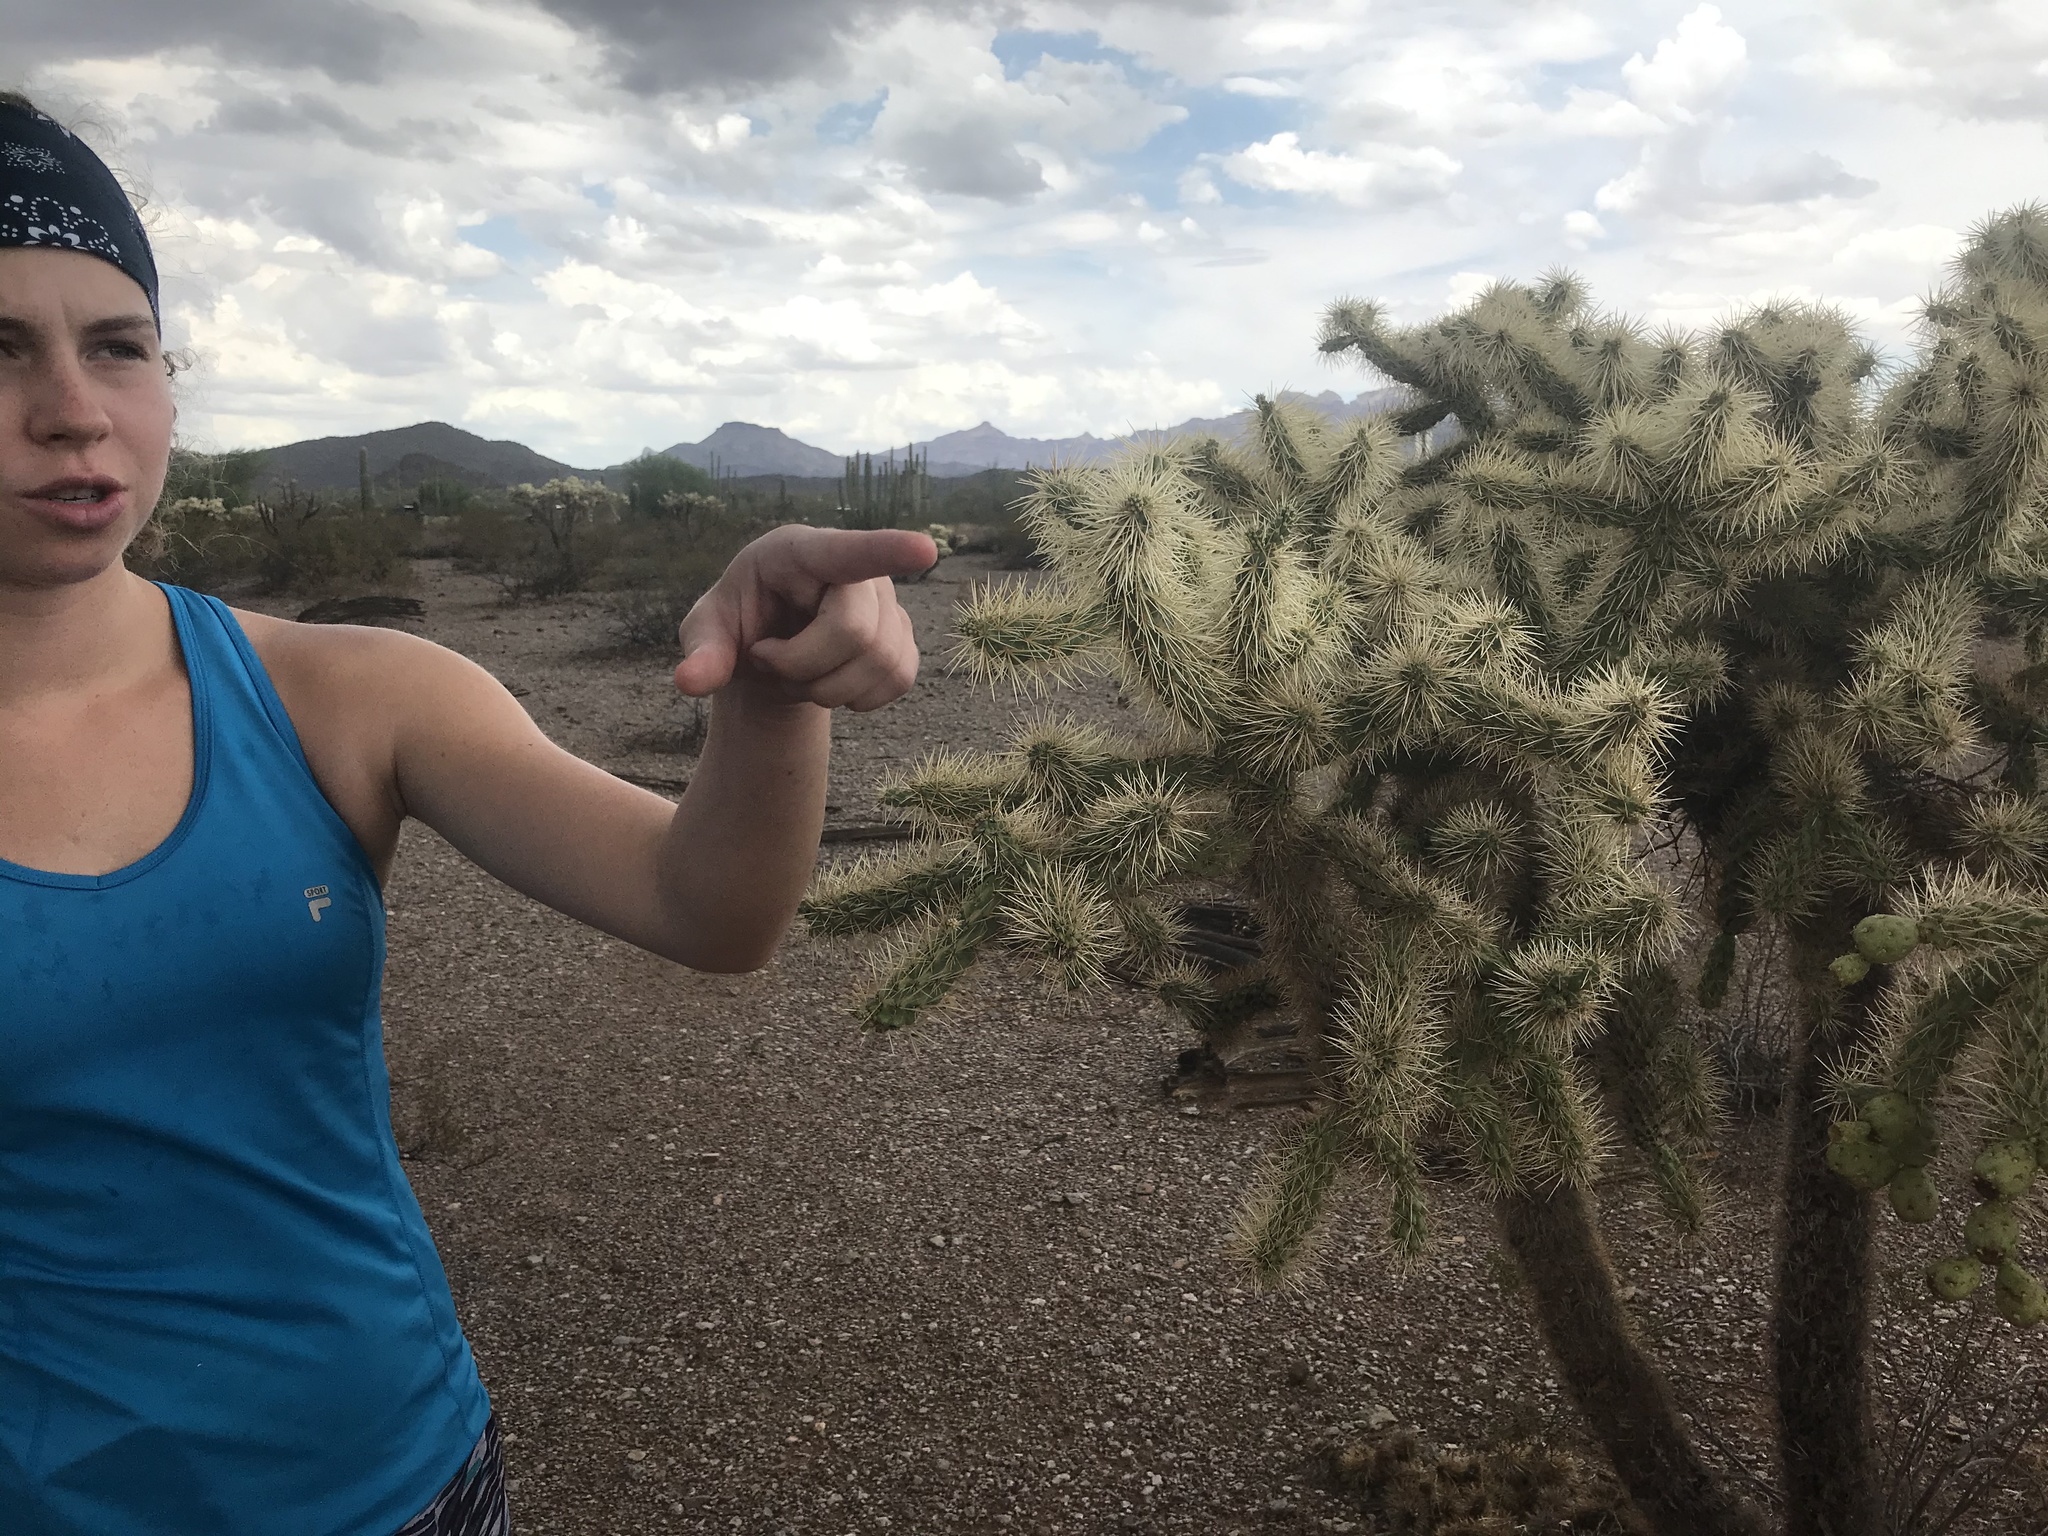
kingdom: Plantae
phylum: Tracheophyta
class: Magnoliopsida
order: Caryophyllales
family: Cactaceae
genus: Cylindropuntia
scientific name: Cylindropuntia fulgida
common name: Jumping cholla
